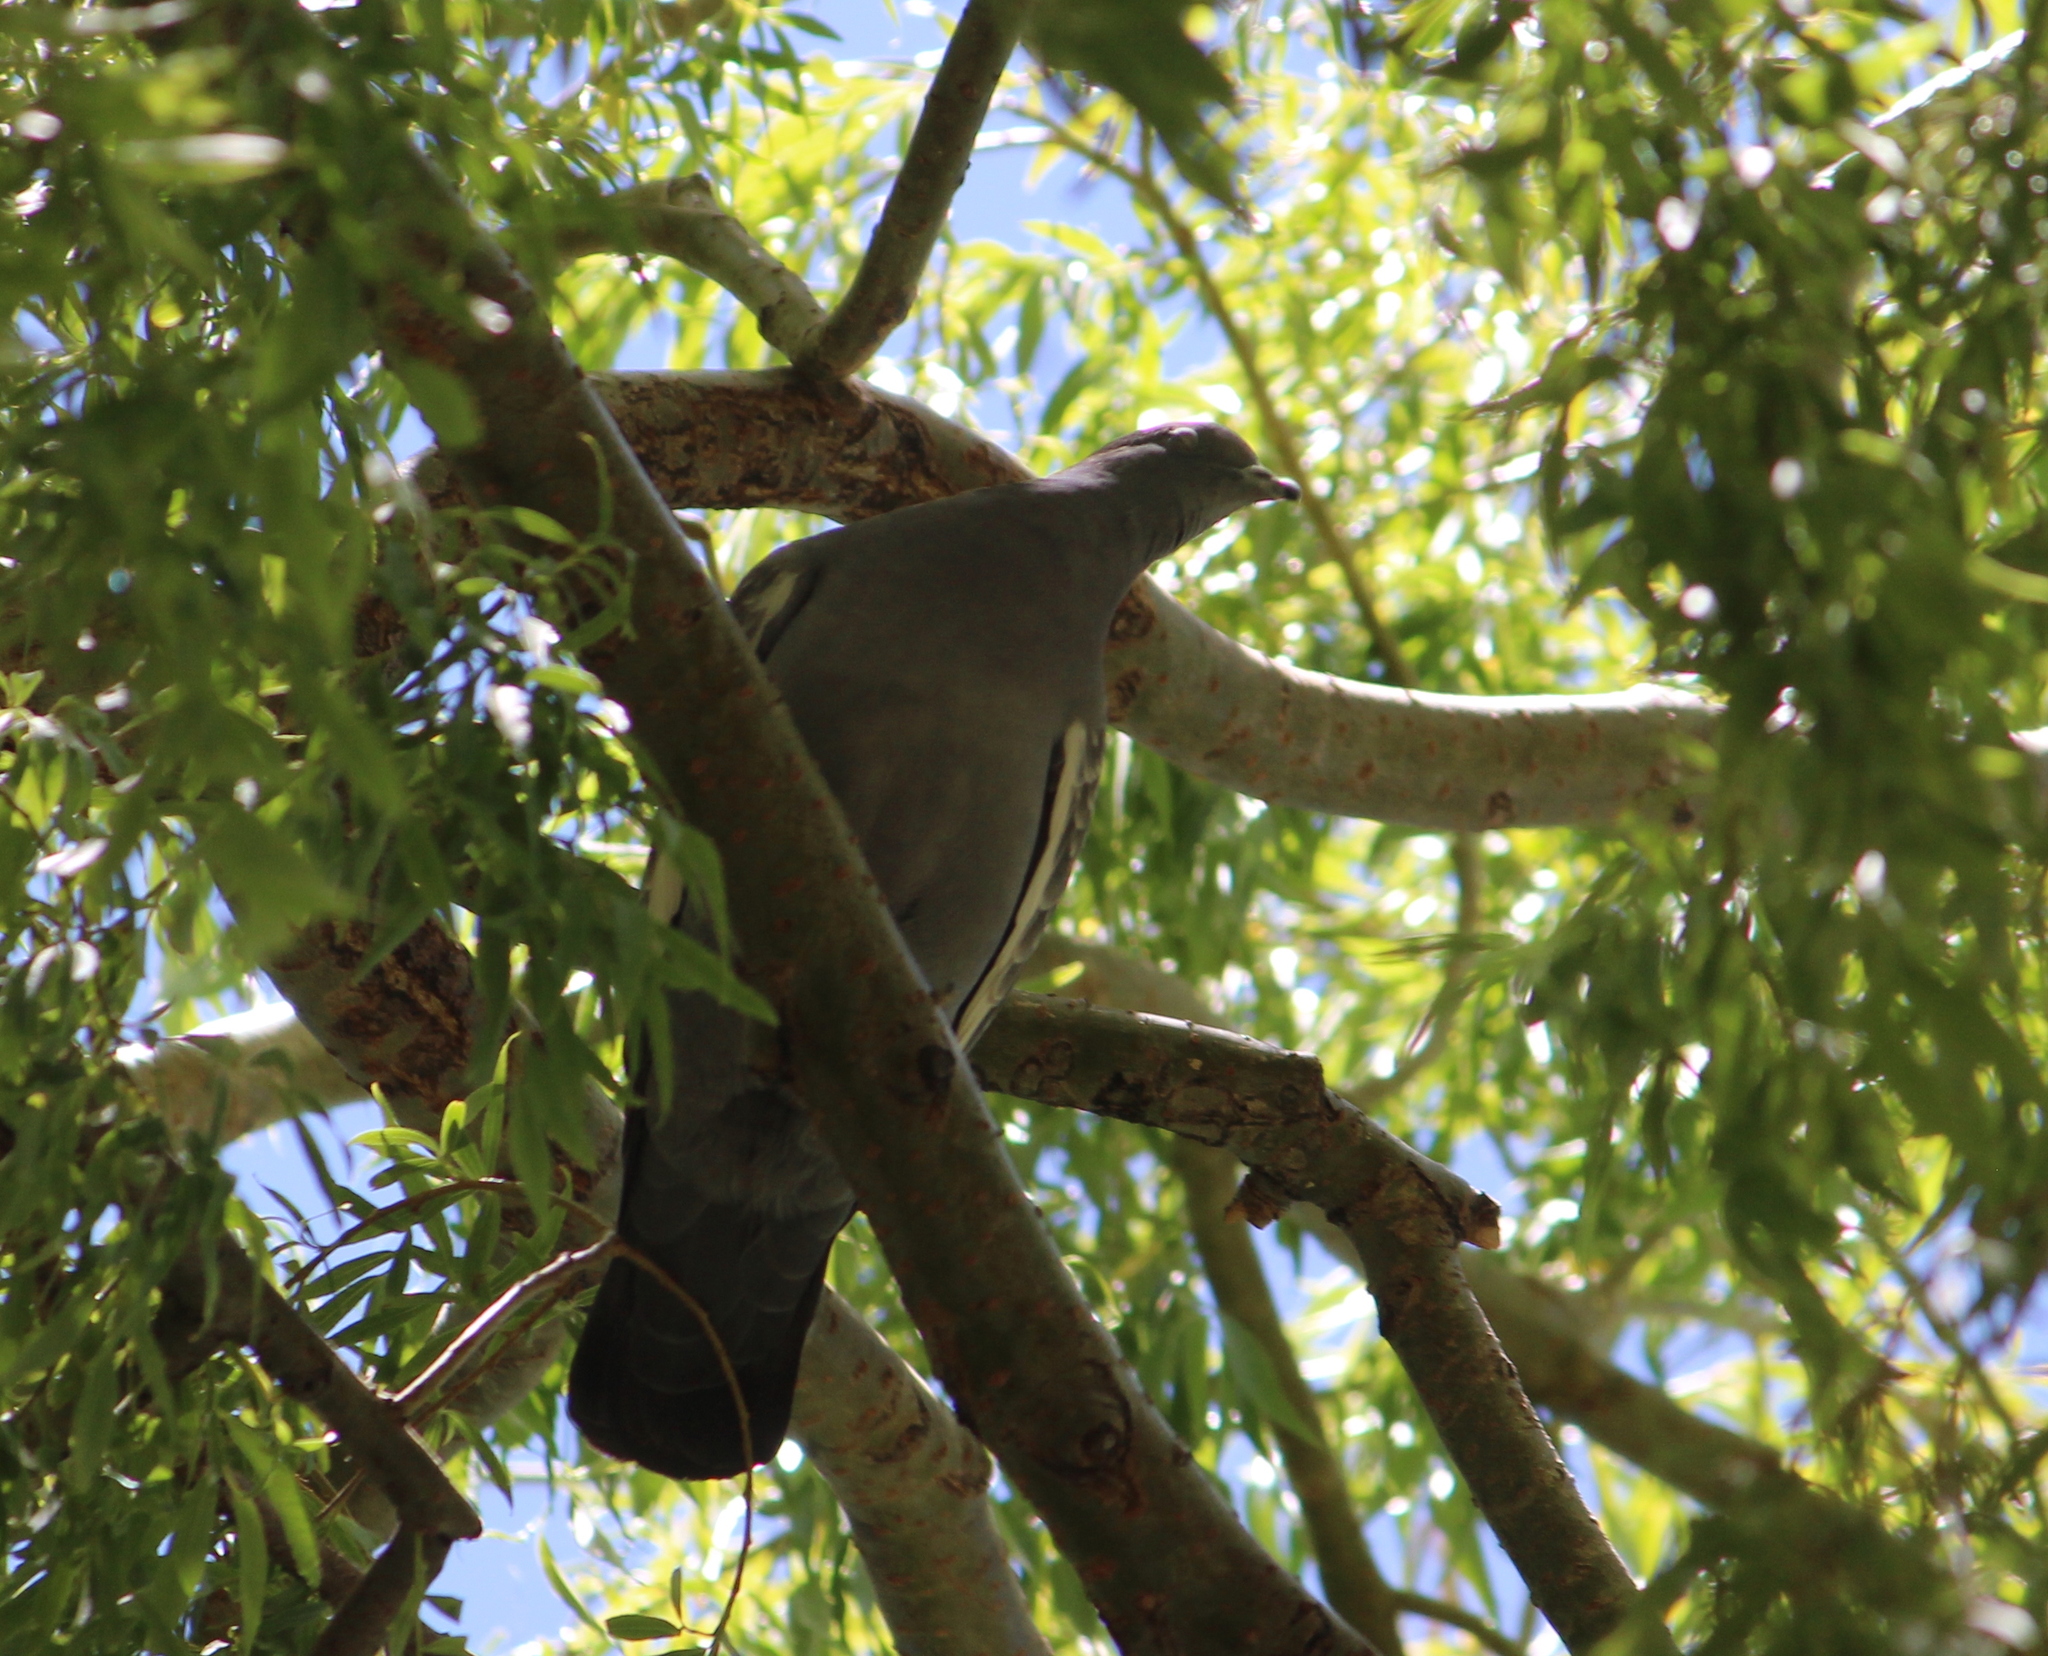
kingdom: Animalia
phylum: Chordata
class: Aves
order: Columbiformes
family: Columbidae
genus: Patagioenas
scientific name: Patagioenas maculosa
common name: Spot-winged pigeon
